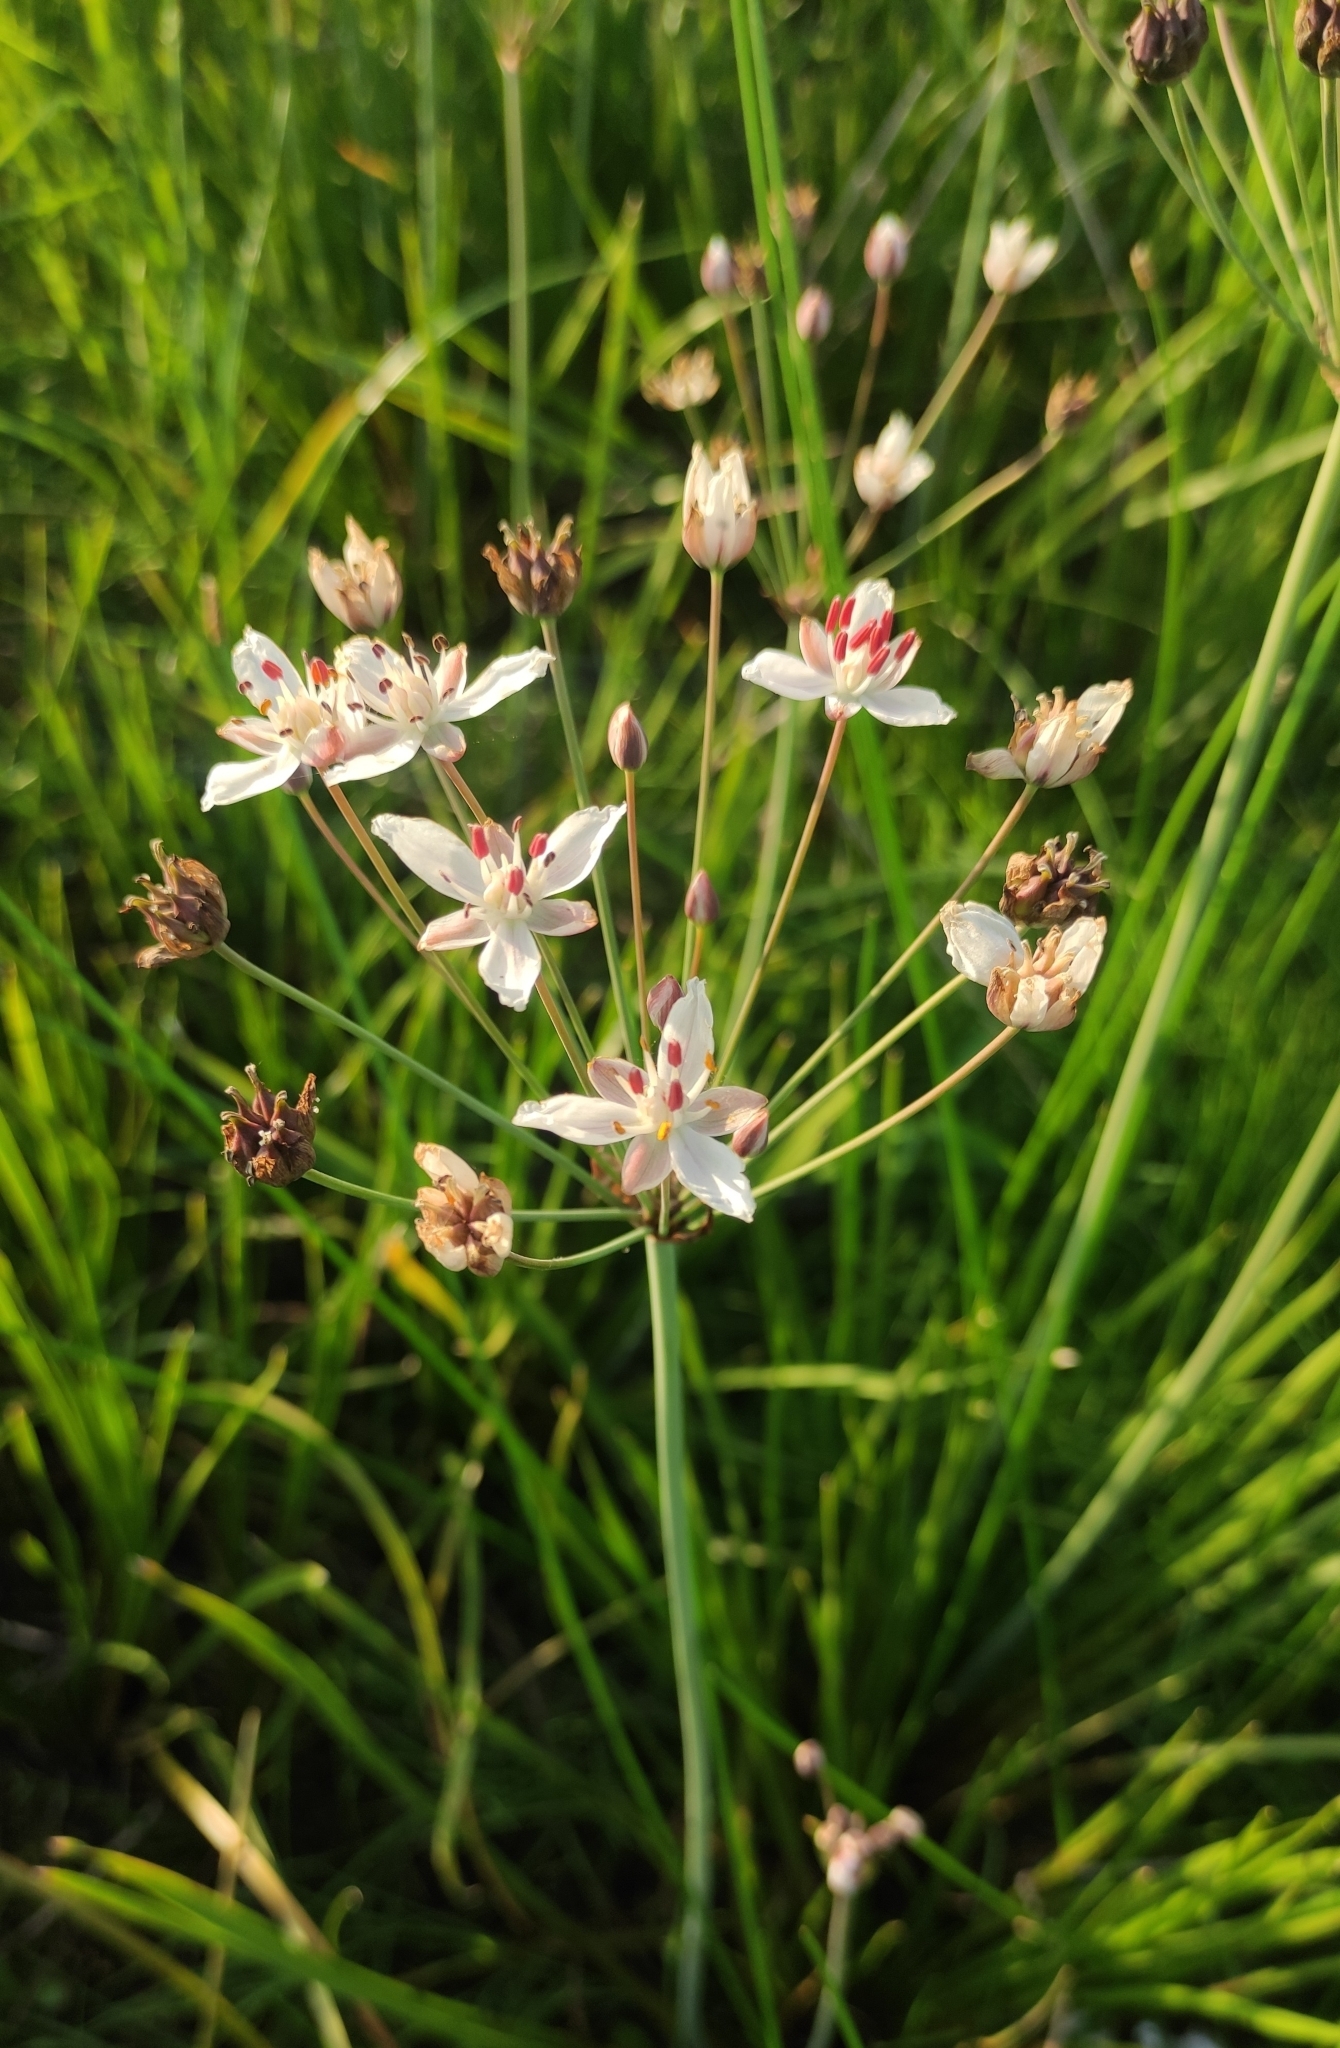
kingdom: Plantae
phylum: Tracheophyta
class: Liliopsida
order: Alismatales
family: Butomaceae
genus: Butomus
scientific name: Butomus umbellatus
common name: Flowering-rush
